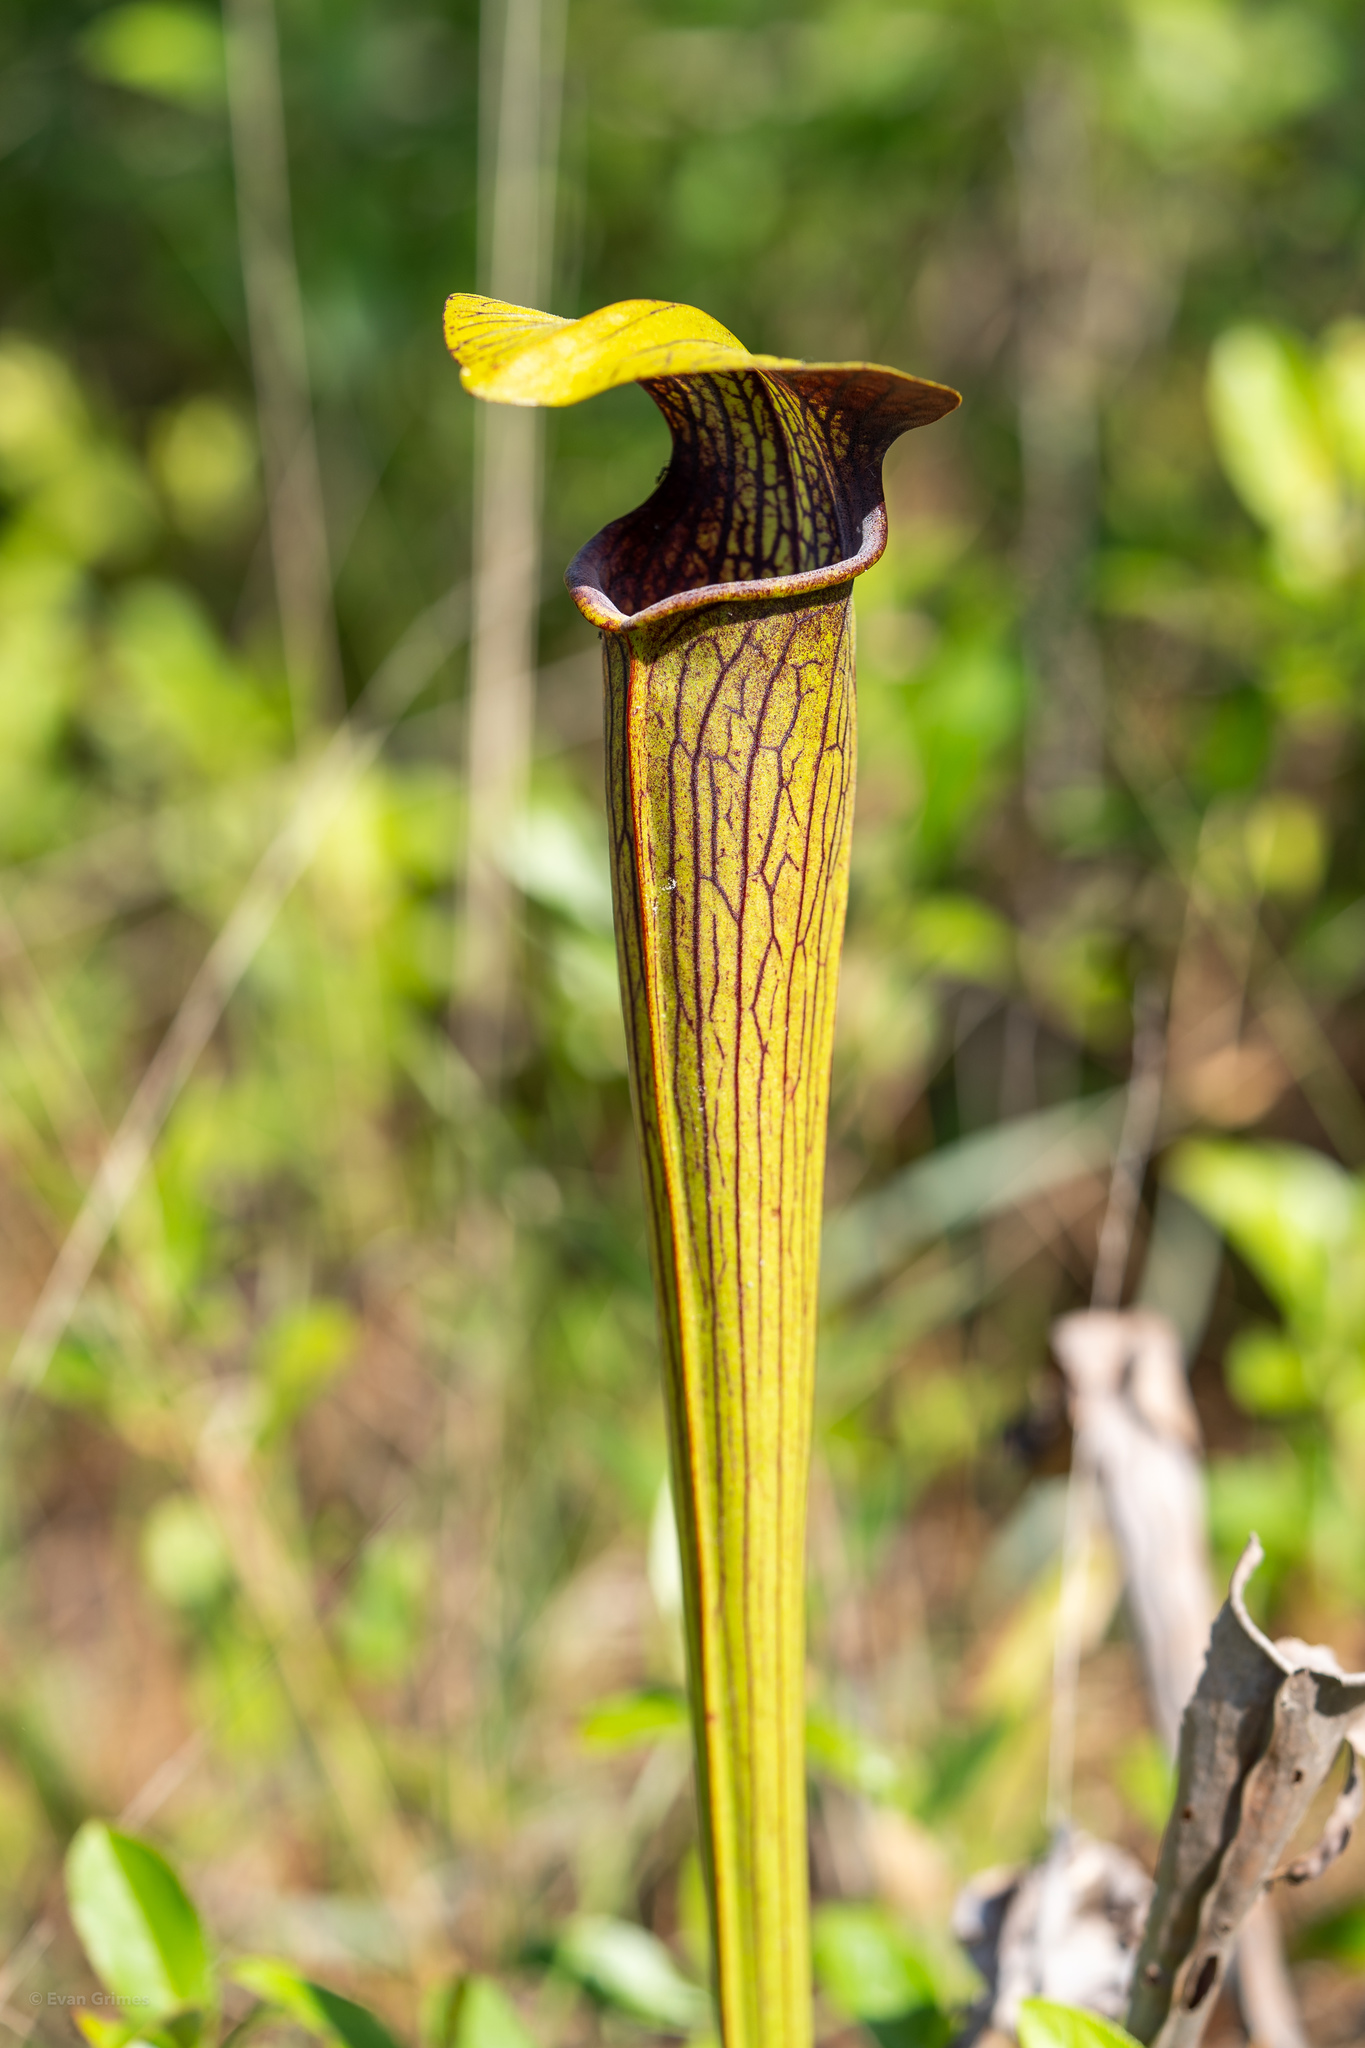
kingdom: Plantae
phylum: Tracheophyta
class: Magnoliopsida
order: Ericales
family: Sarraceniaceae
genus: Sarracenia
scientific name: Sarracenia alata
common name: Yellow trumpets
